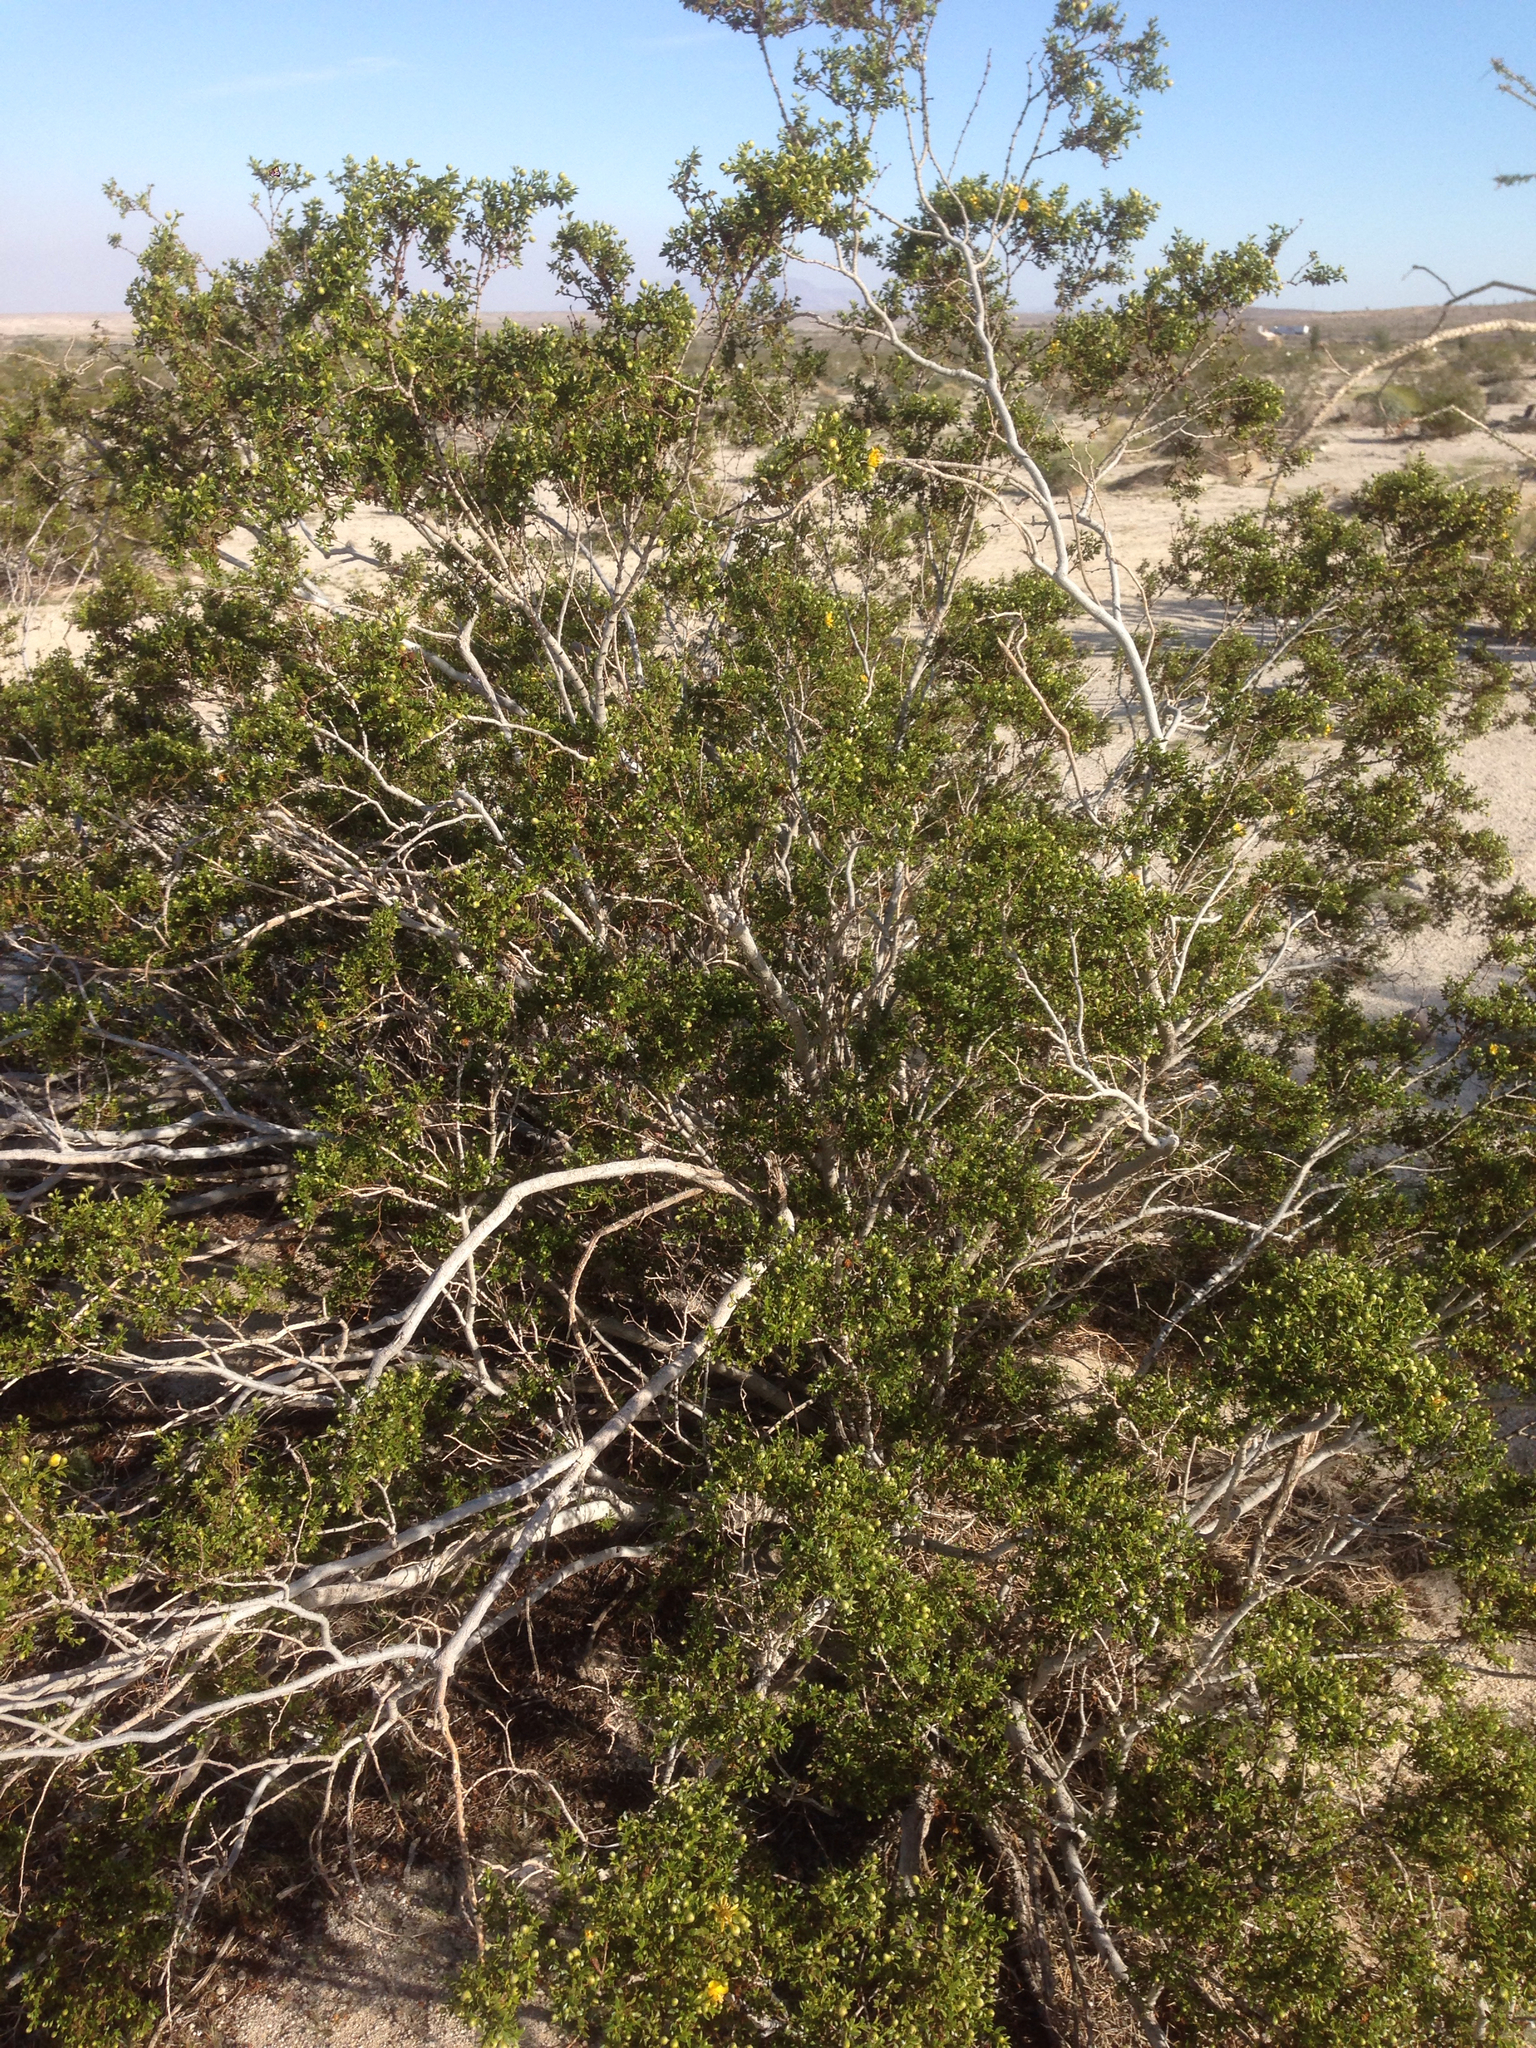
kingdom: Plantae
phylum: Tracheophyta
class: Magnoliopsida
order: Zygophyllales
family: Zygophyllaceae
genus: Larrea
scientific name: Larrea tridentata
